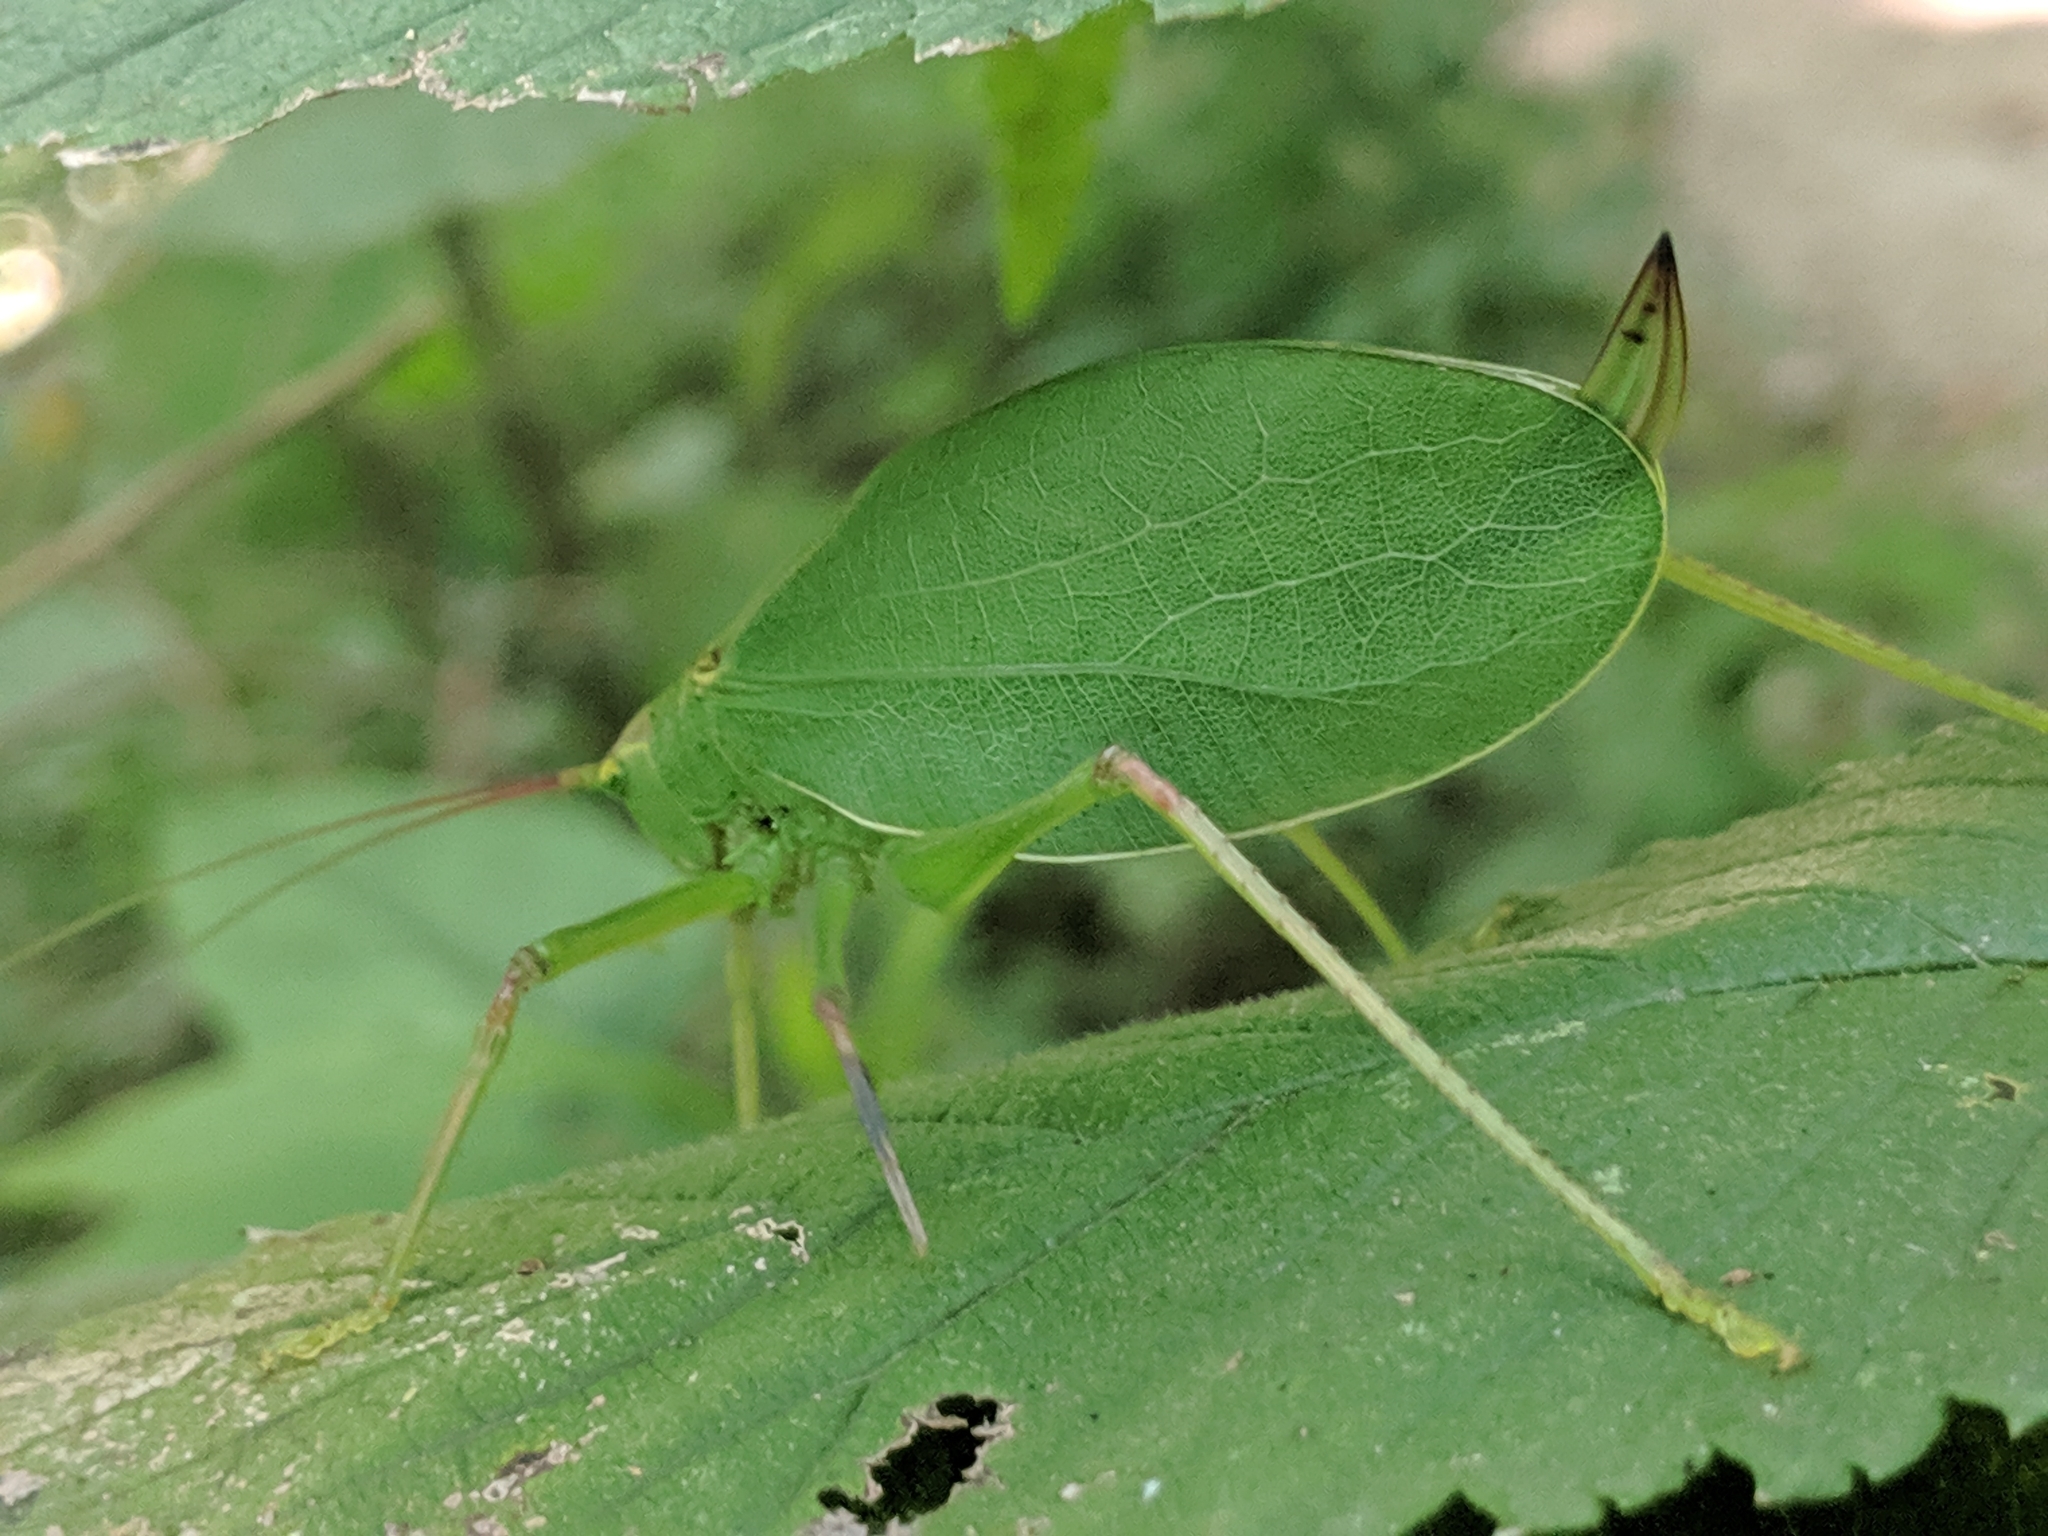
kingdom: Animalia
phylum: Arthropoda
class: Insecta
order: Orthoptera
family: Tettigoniidae
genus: Pterophylla
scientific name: Pterophylla camellifolia
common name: Common true katydid
